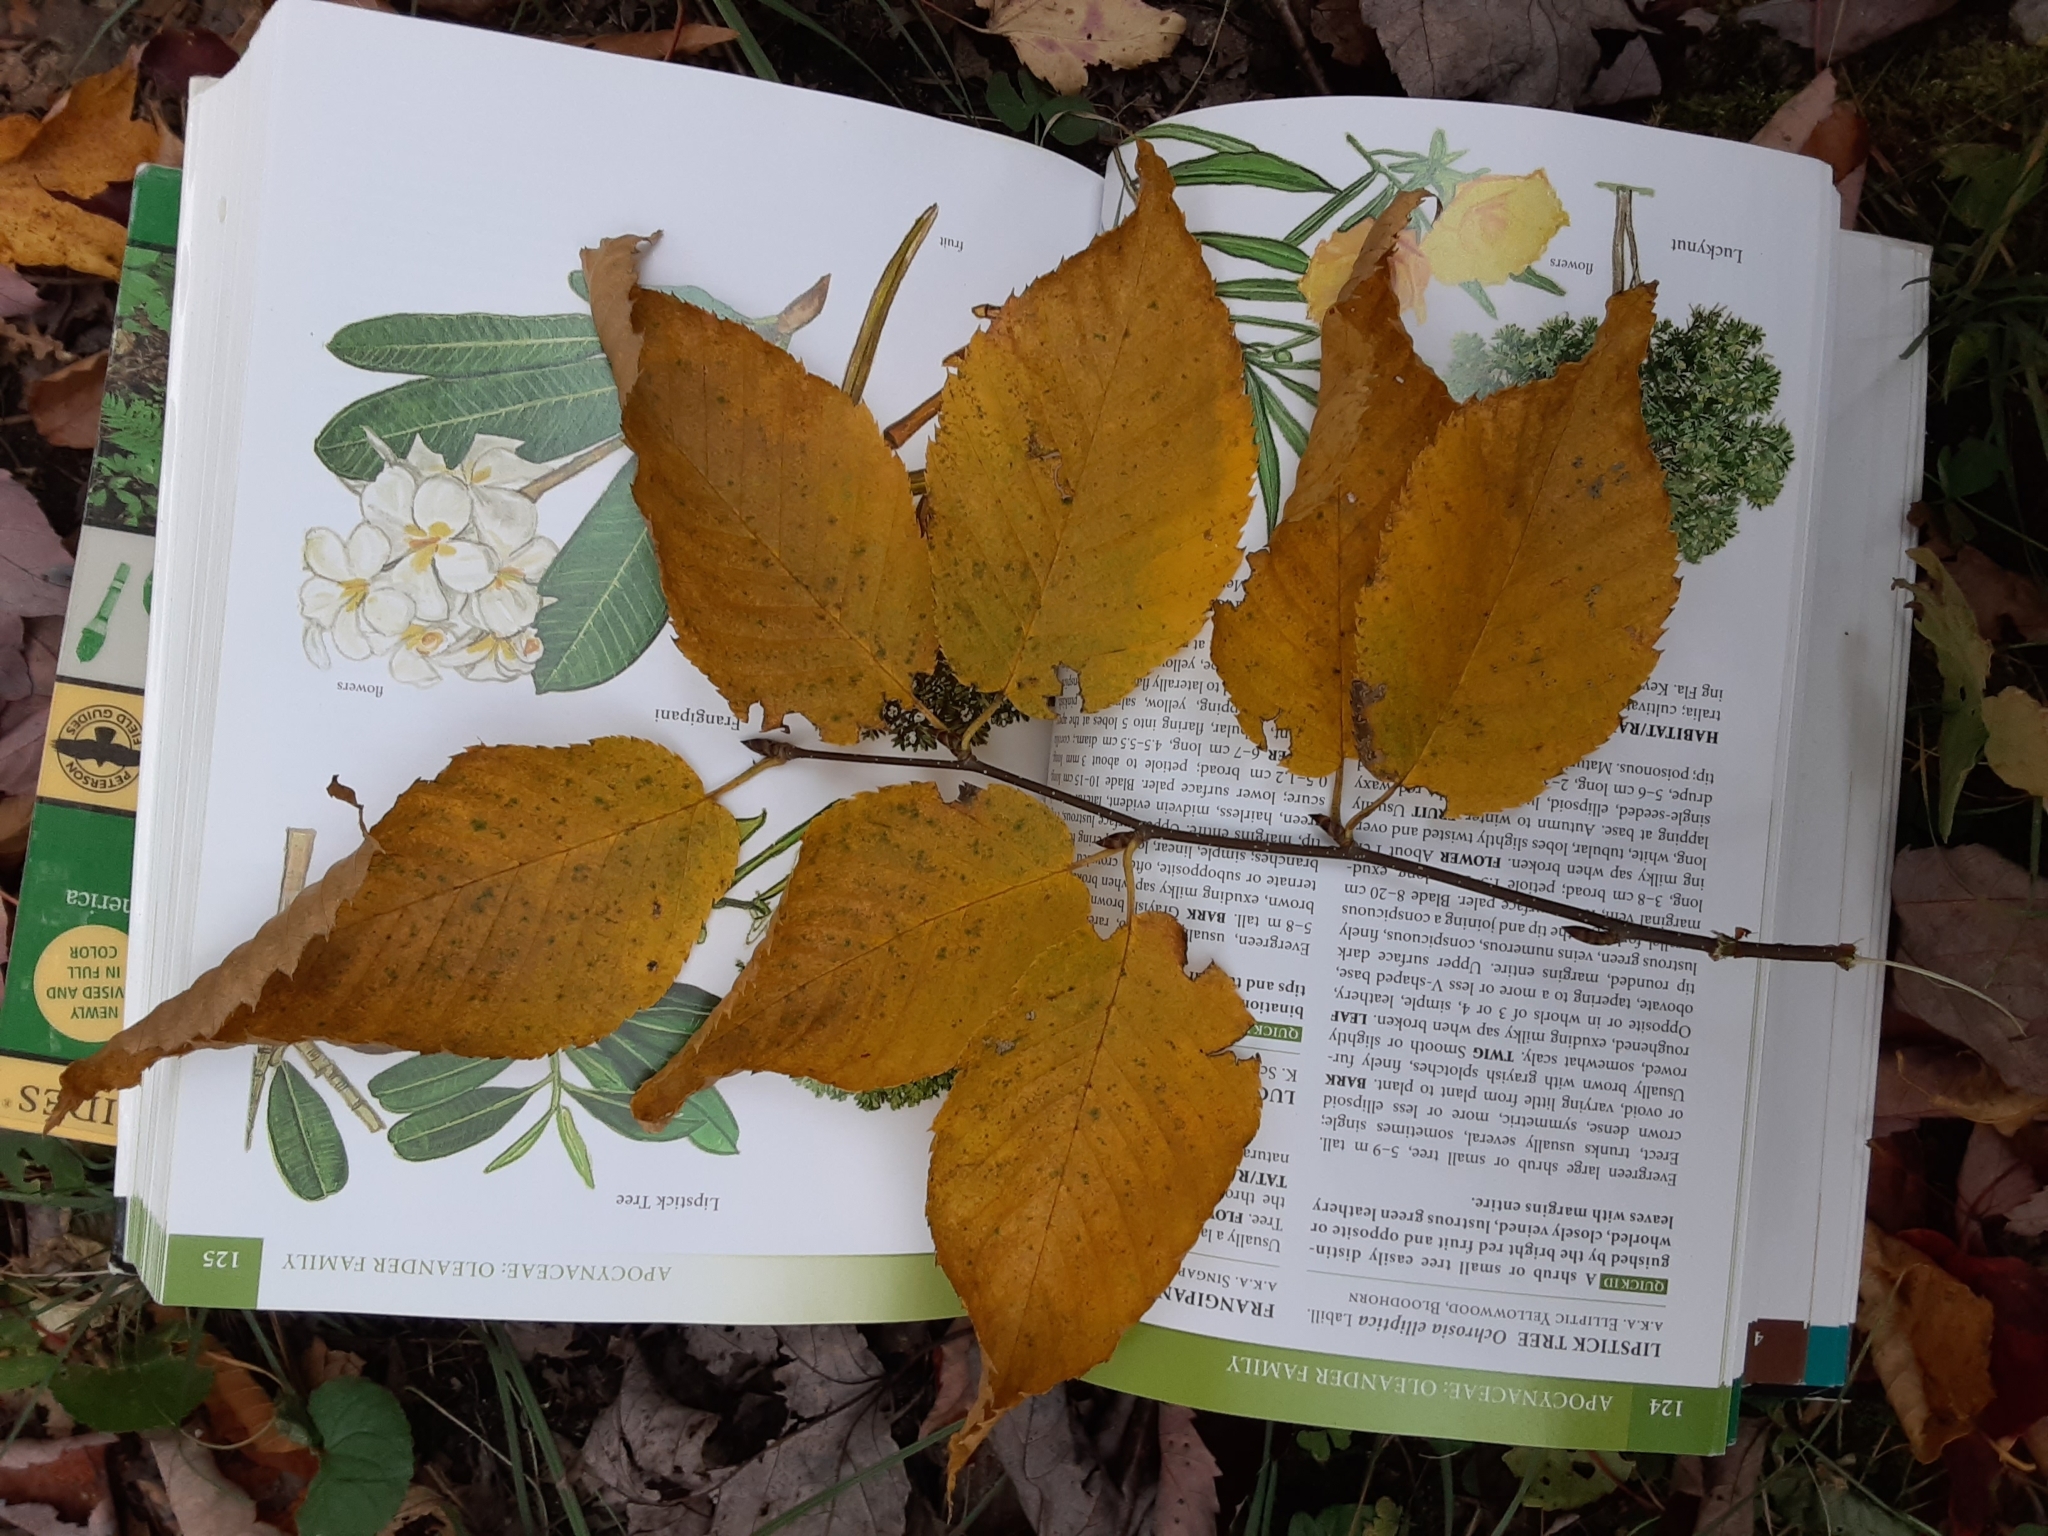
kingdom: Plantae
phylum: Tracheophyta
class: Magnoliopsida
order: Fagales
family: Betulaceae
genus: Betula
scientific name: Betula alleghaniensis
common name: Yellow birch
